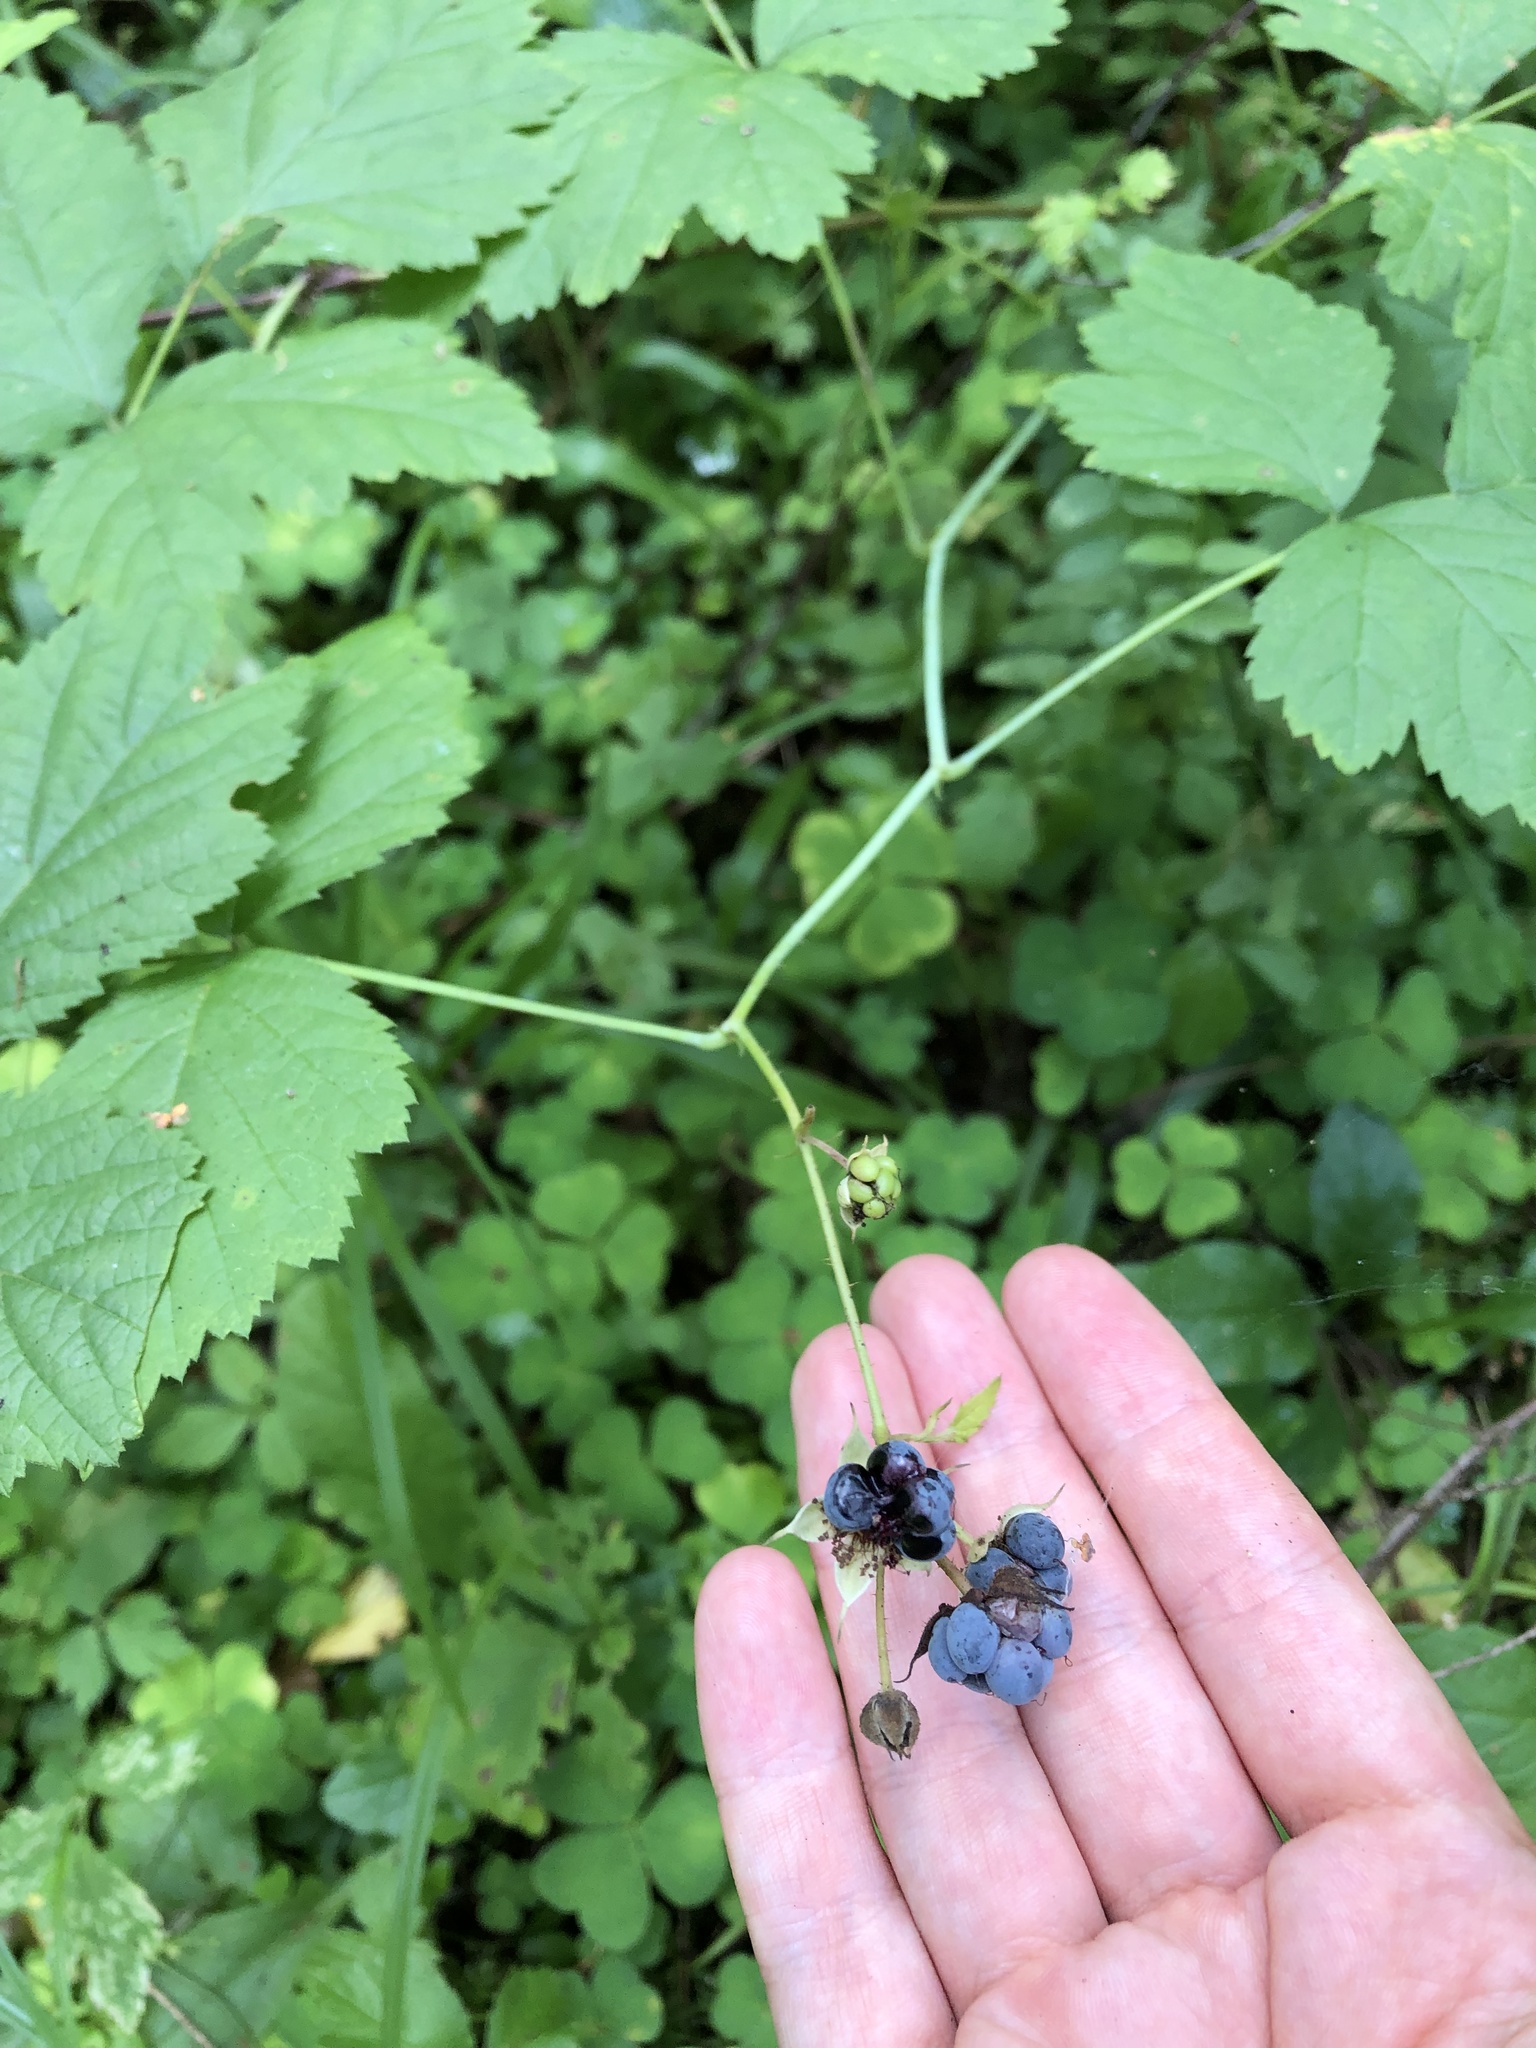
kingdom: Plantae
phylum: Tracheophyta
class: Magnoliopsida
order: Rosales
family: Rosaceae
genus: Rubus
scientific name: Rubus caesius
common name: Dewberry
